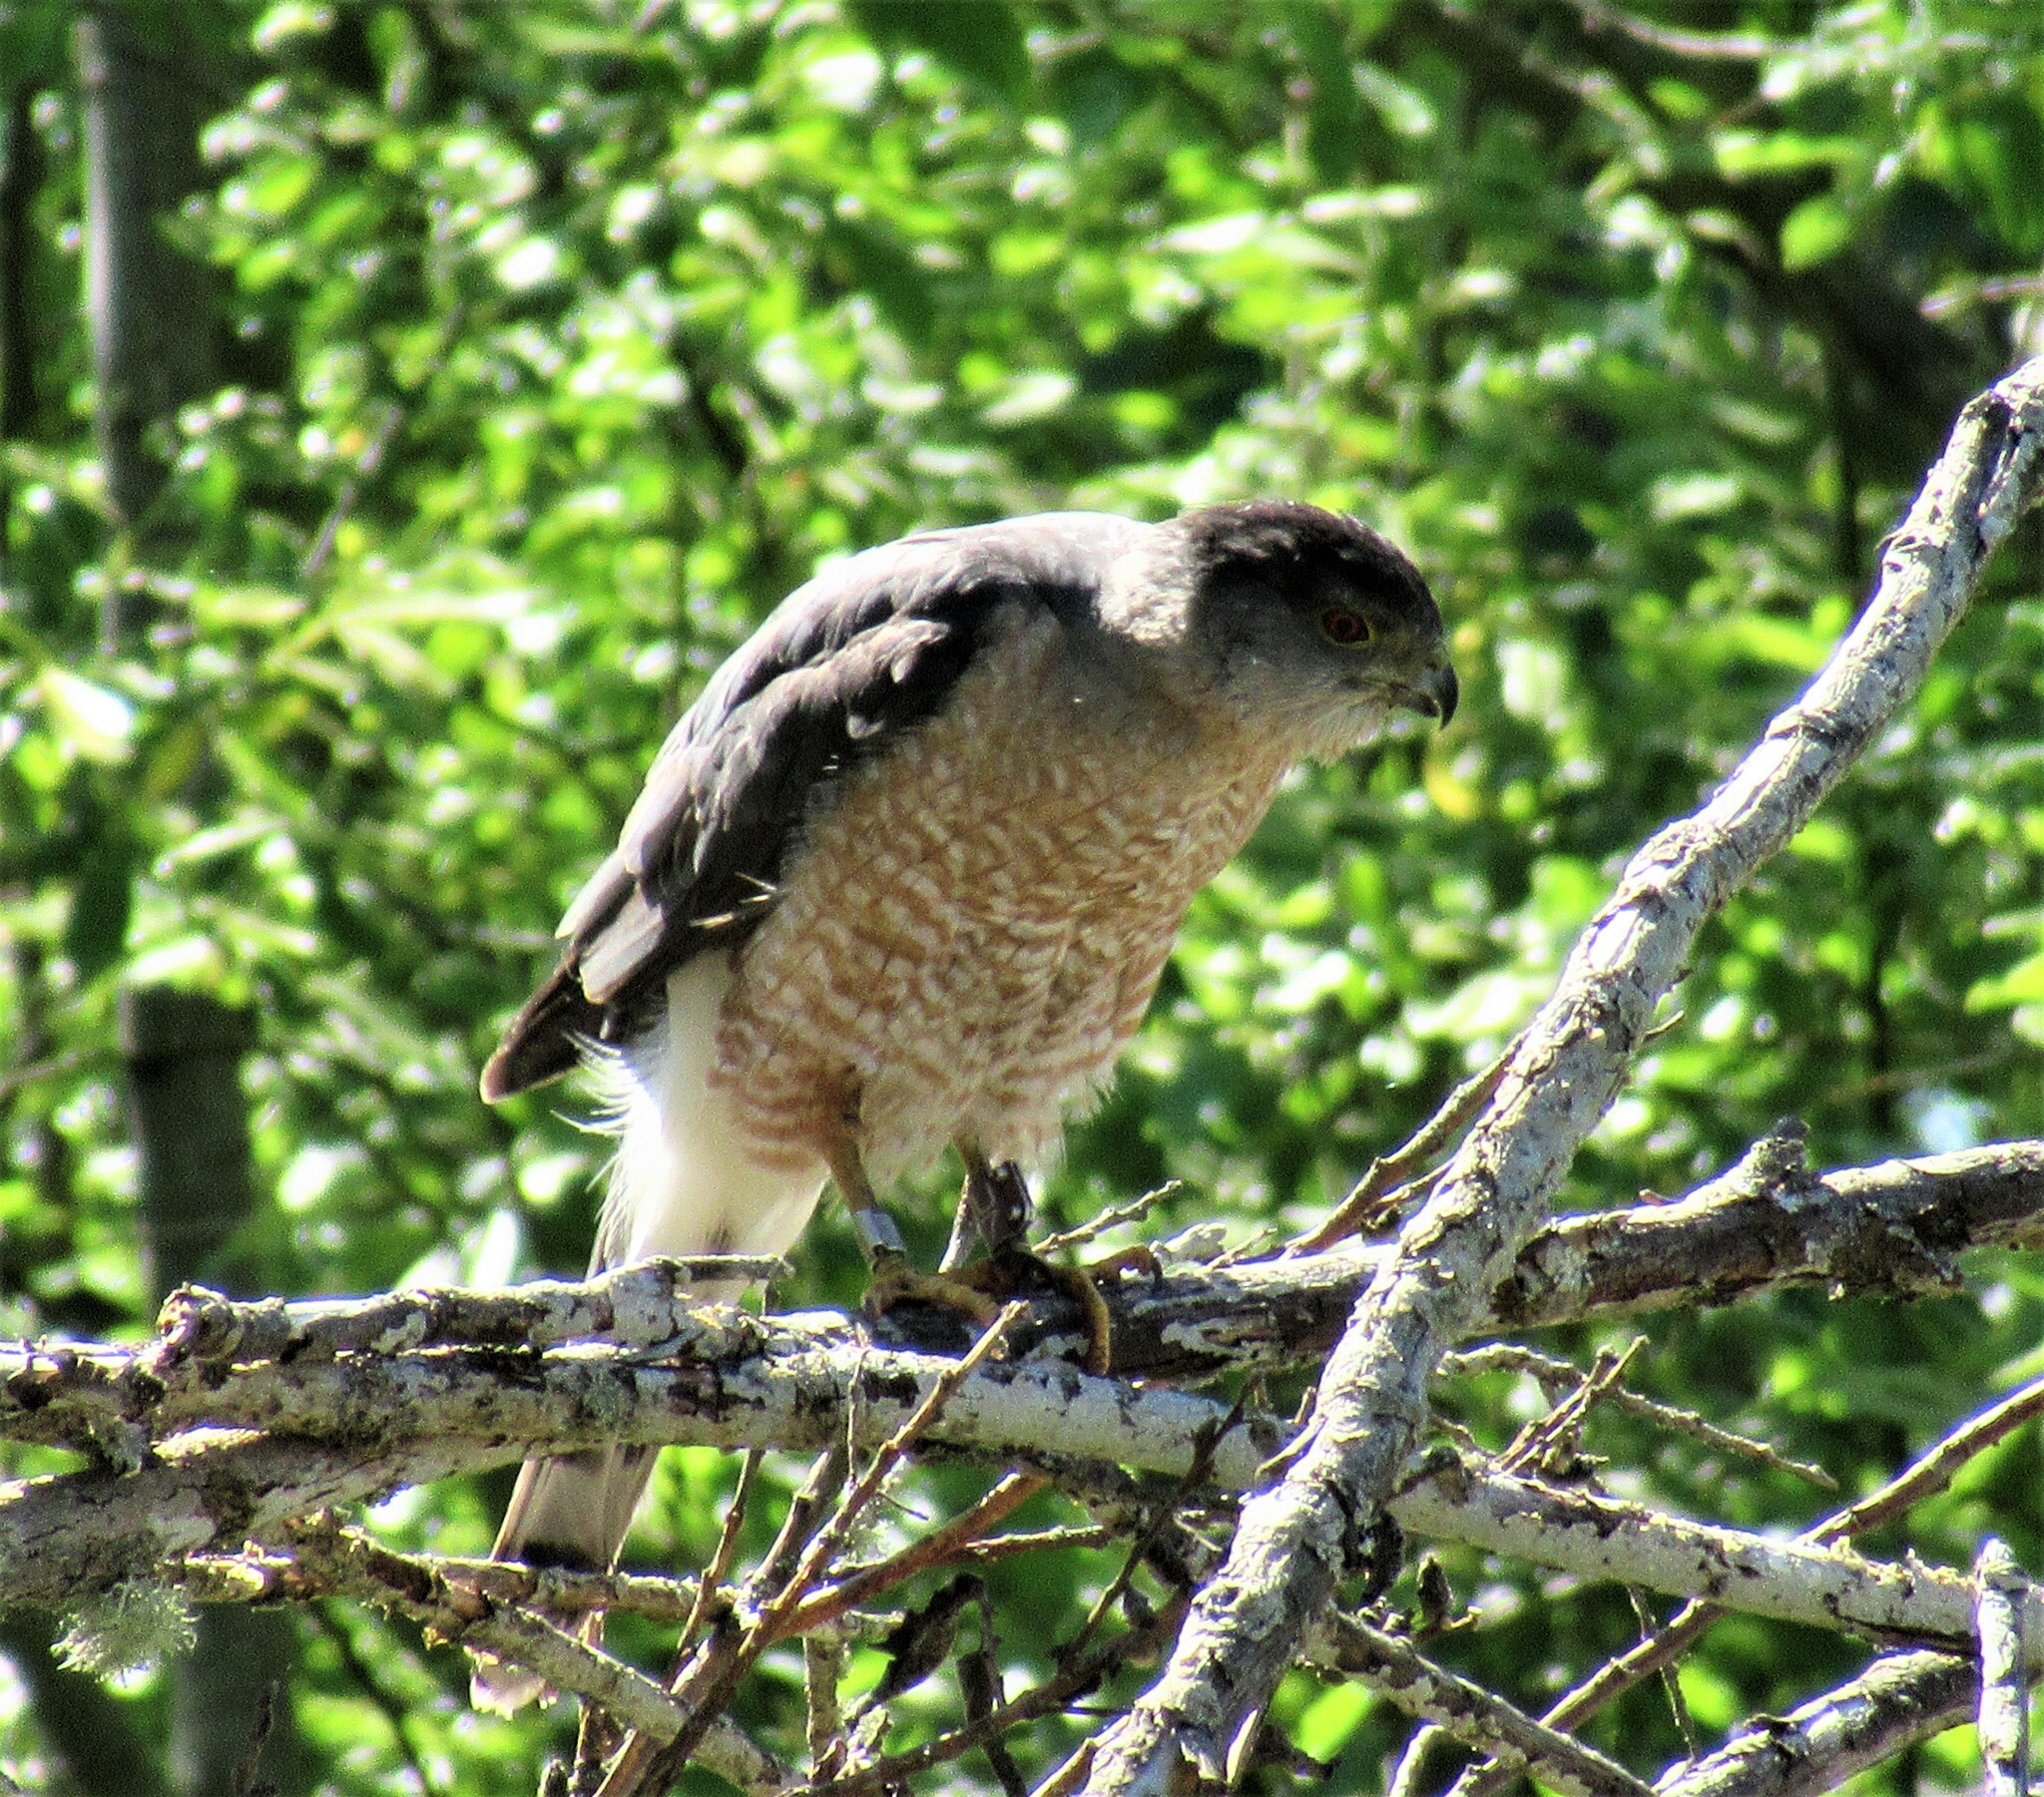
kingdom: Animalia
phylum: Chordata
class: Aves
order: Accipitriformes
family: Accipitridae
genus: Accipiter
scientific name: Accipiter cooperii
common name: Cooper's hawk
